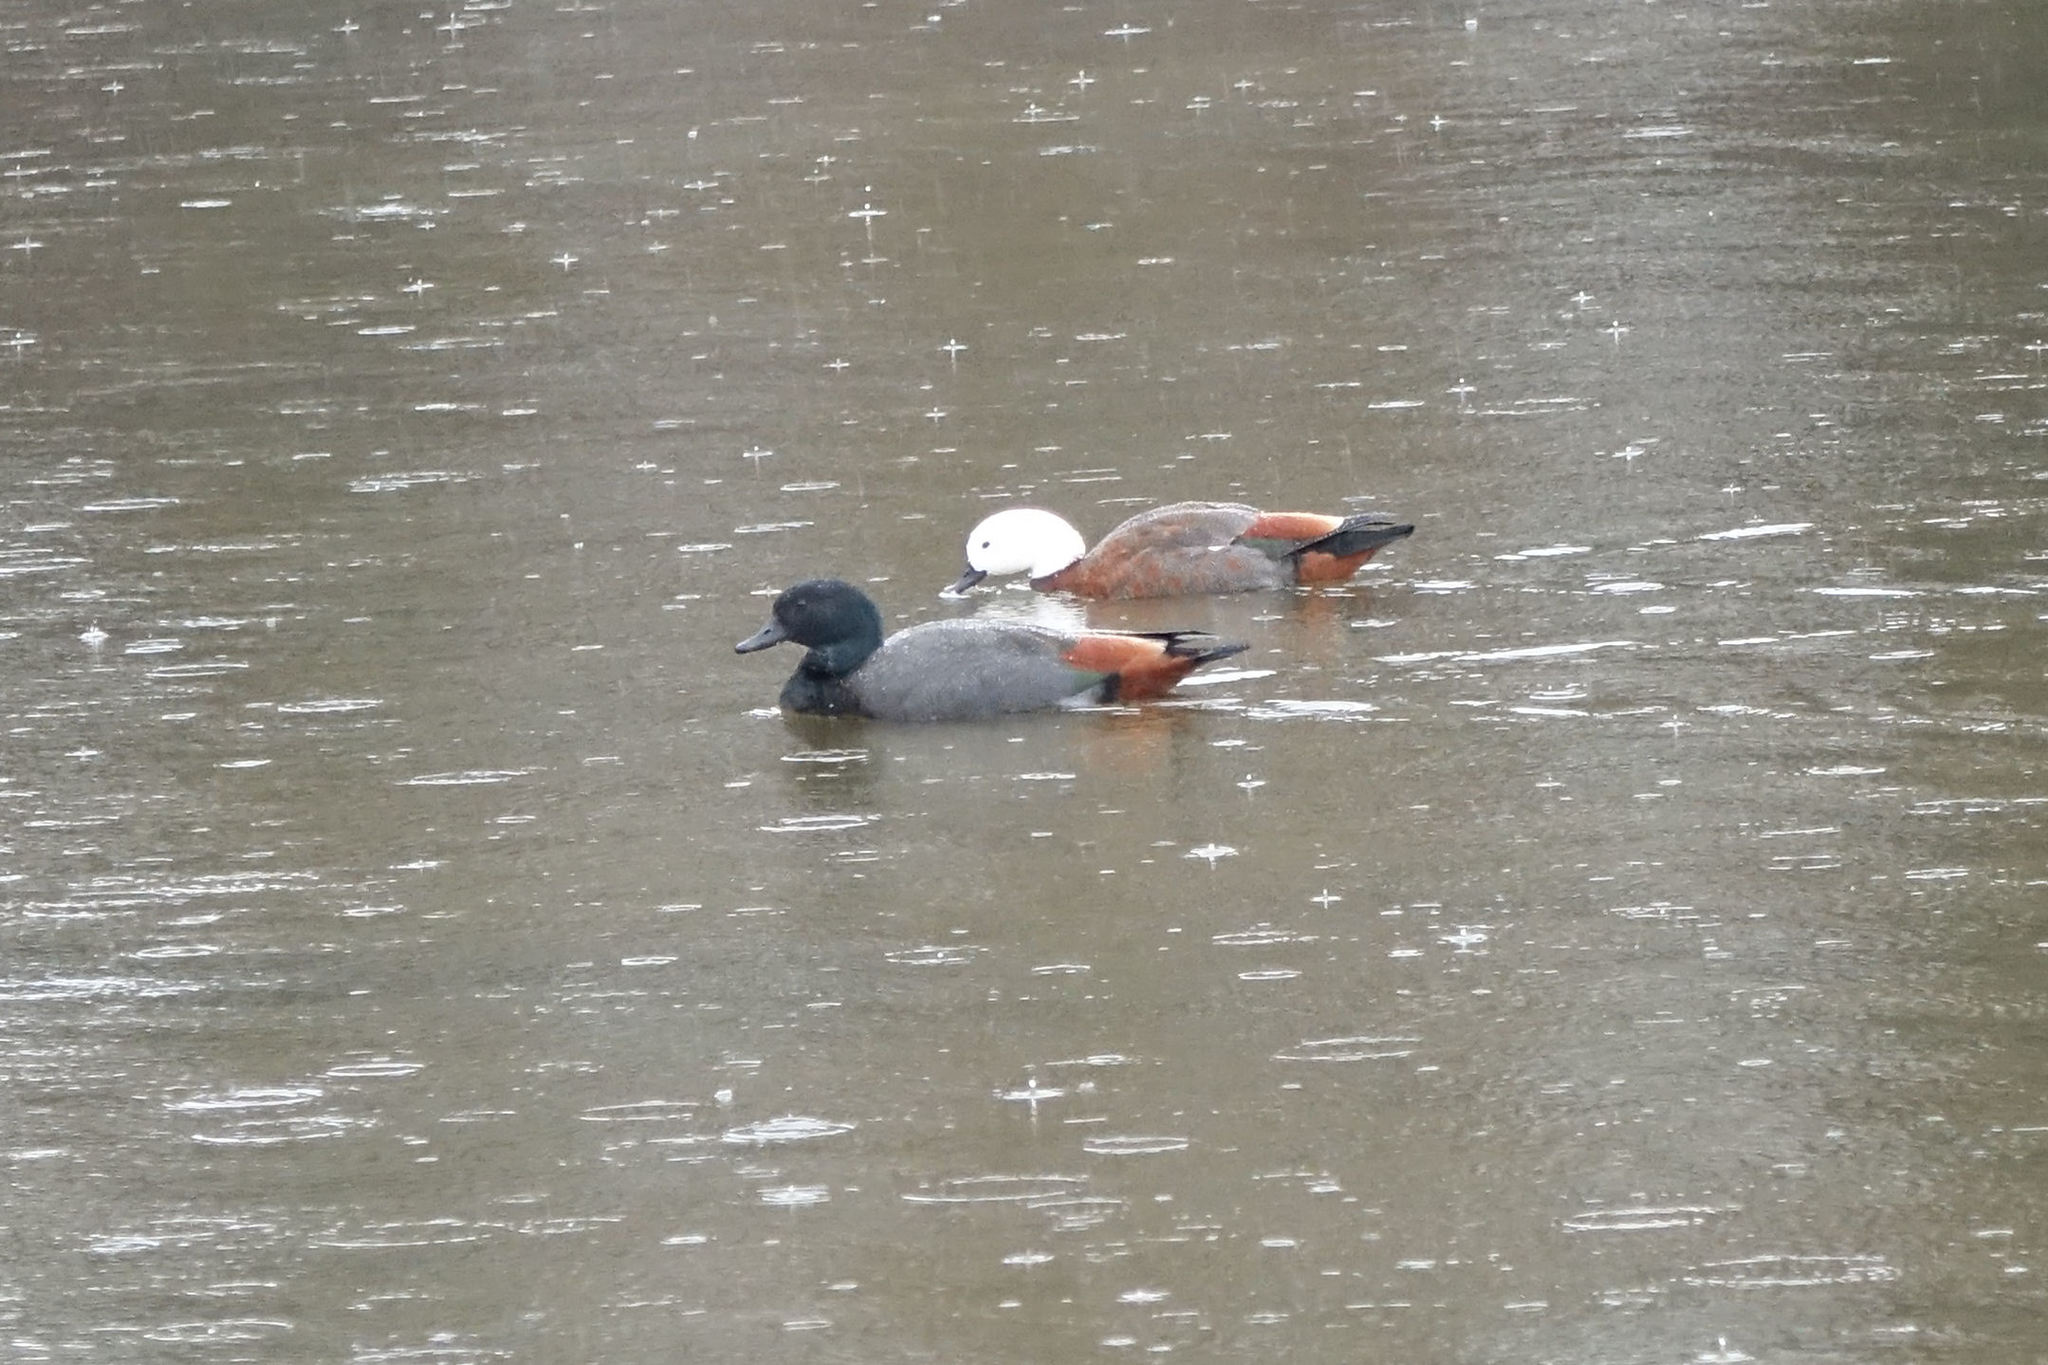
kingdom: Animalia
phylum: Chordata
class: Aves
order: Anseriformes
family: Anatidae
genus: Tadorna
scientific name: Tadorna variegata
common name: Paradise shelduck
